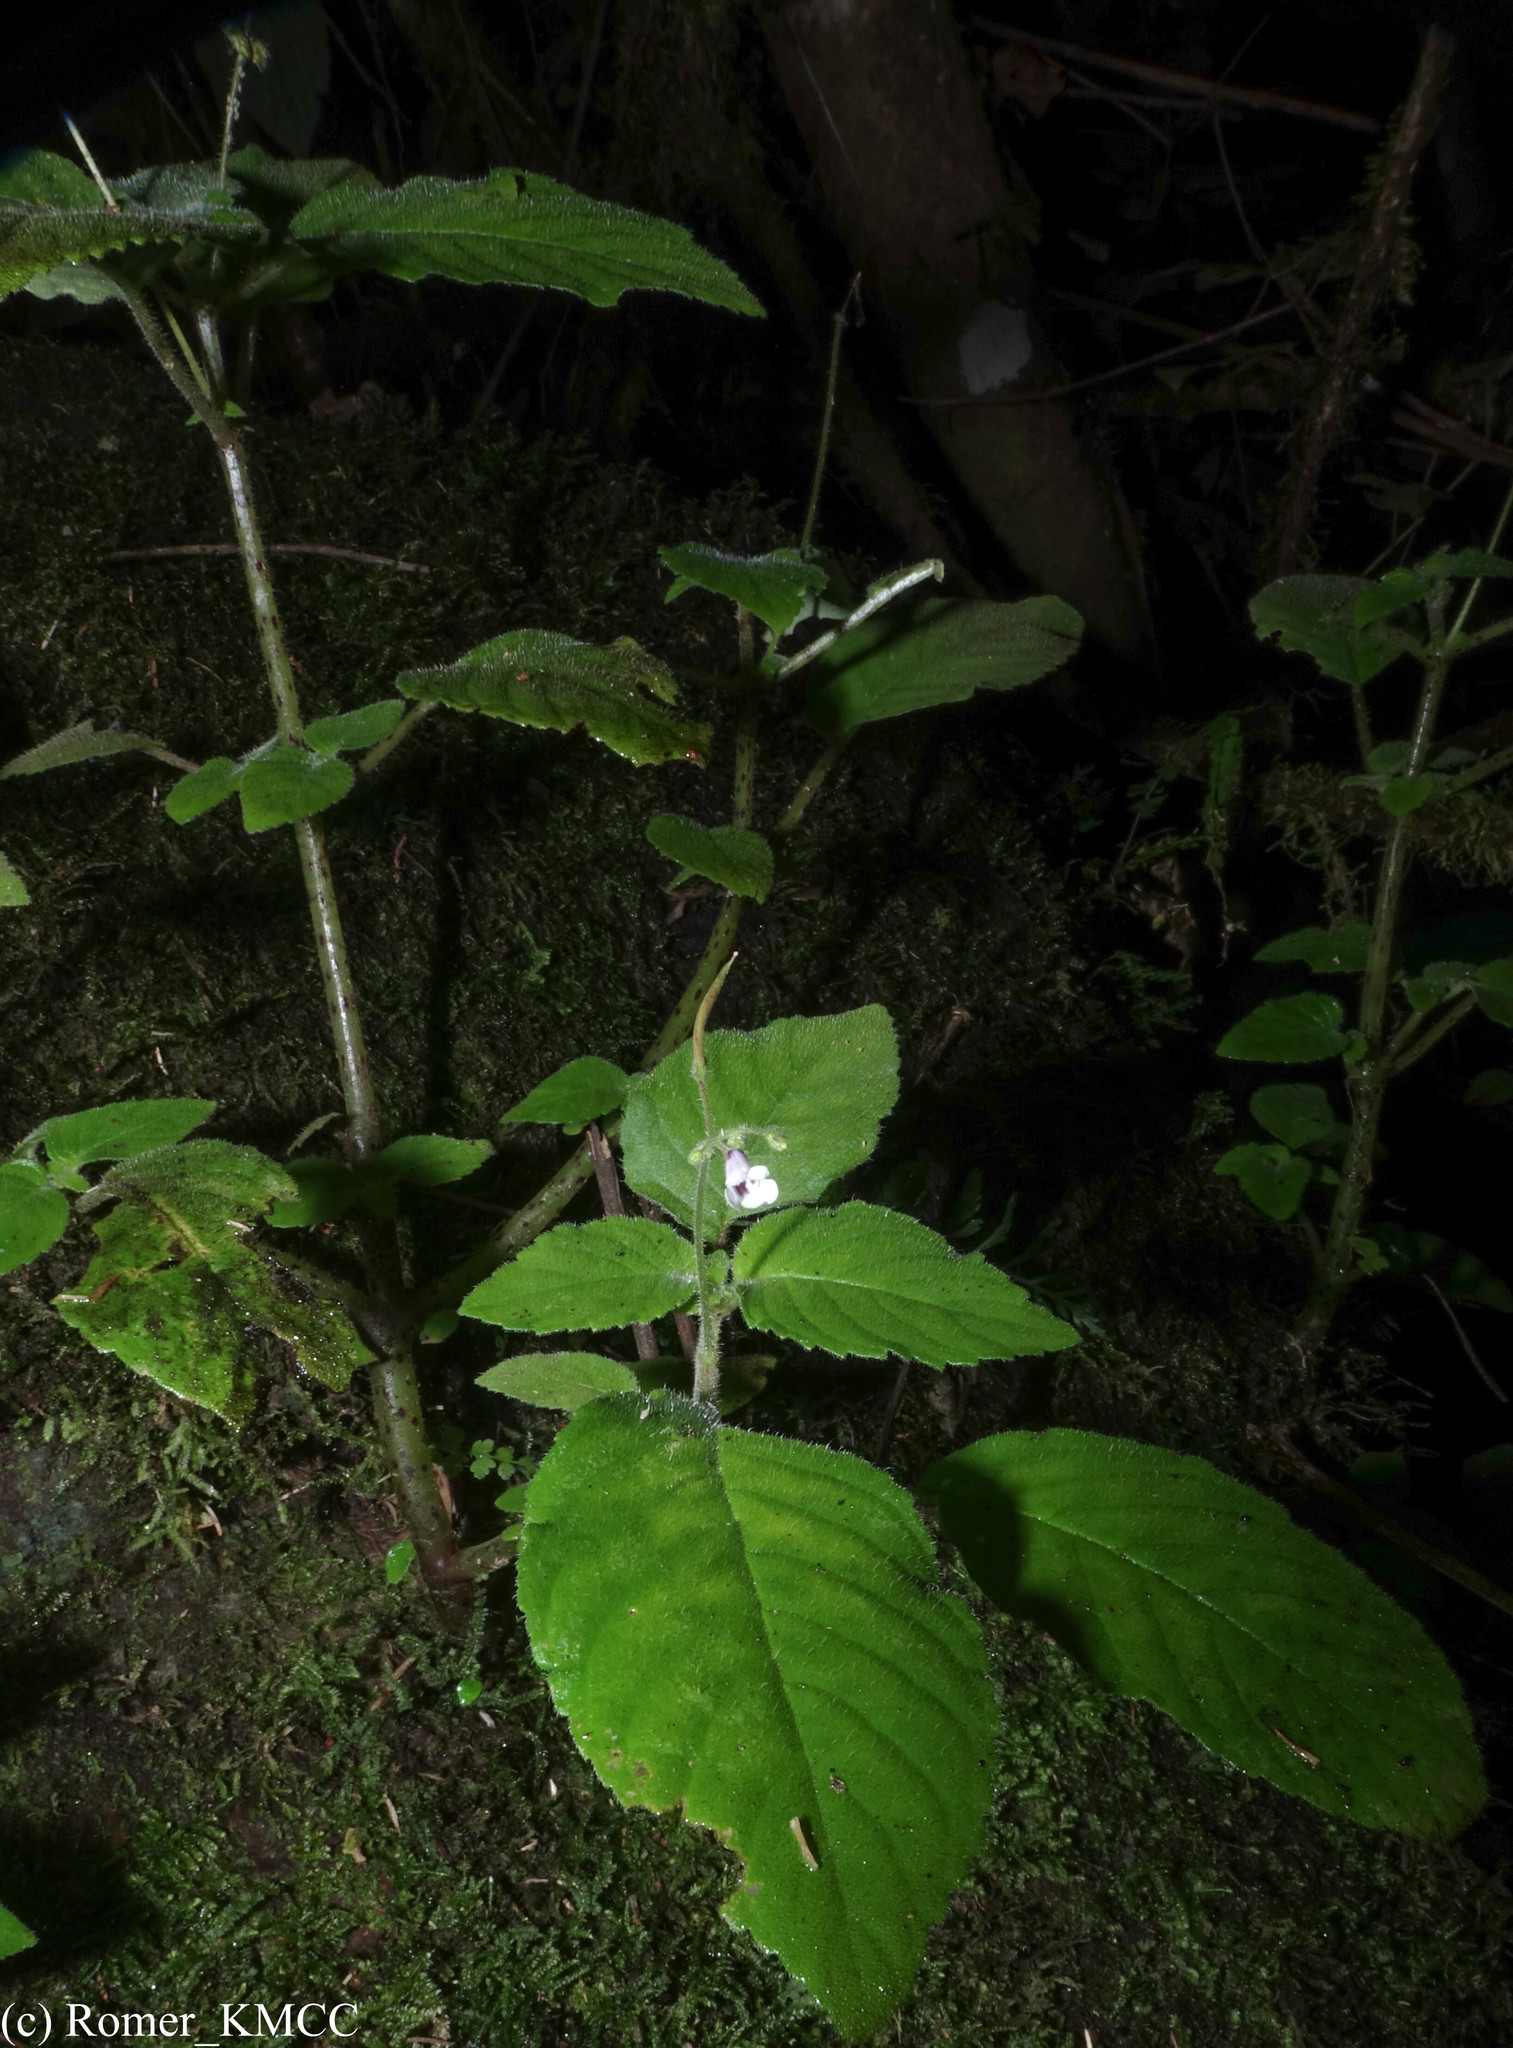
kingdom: Plantae
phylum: Tracheophyta
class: Magnoliopsida
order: Lamiales
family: Gesneriaceae
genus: Streptocarpus
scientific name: Streptocarpus oliganthus
